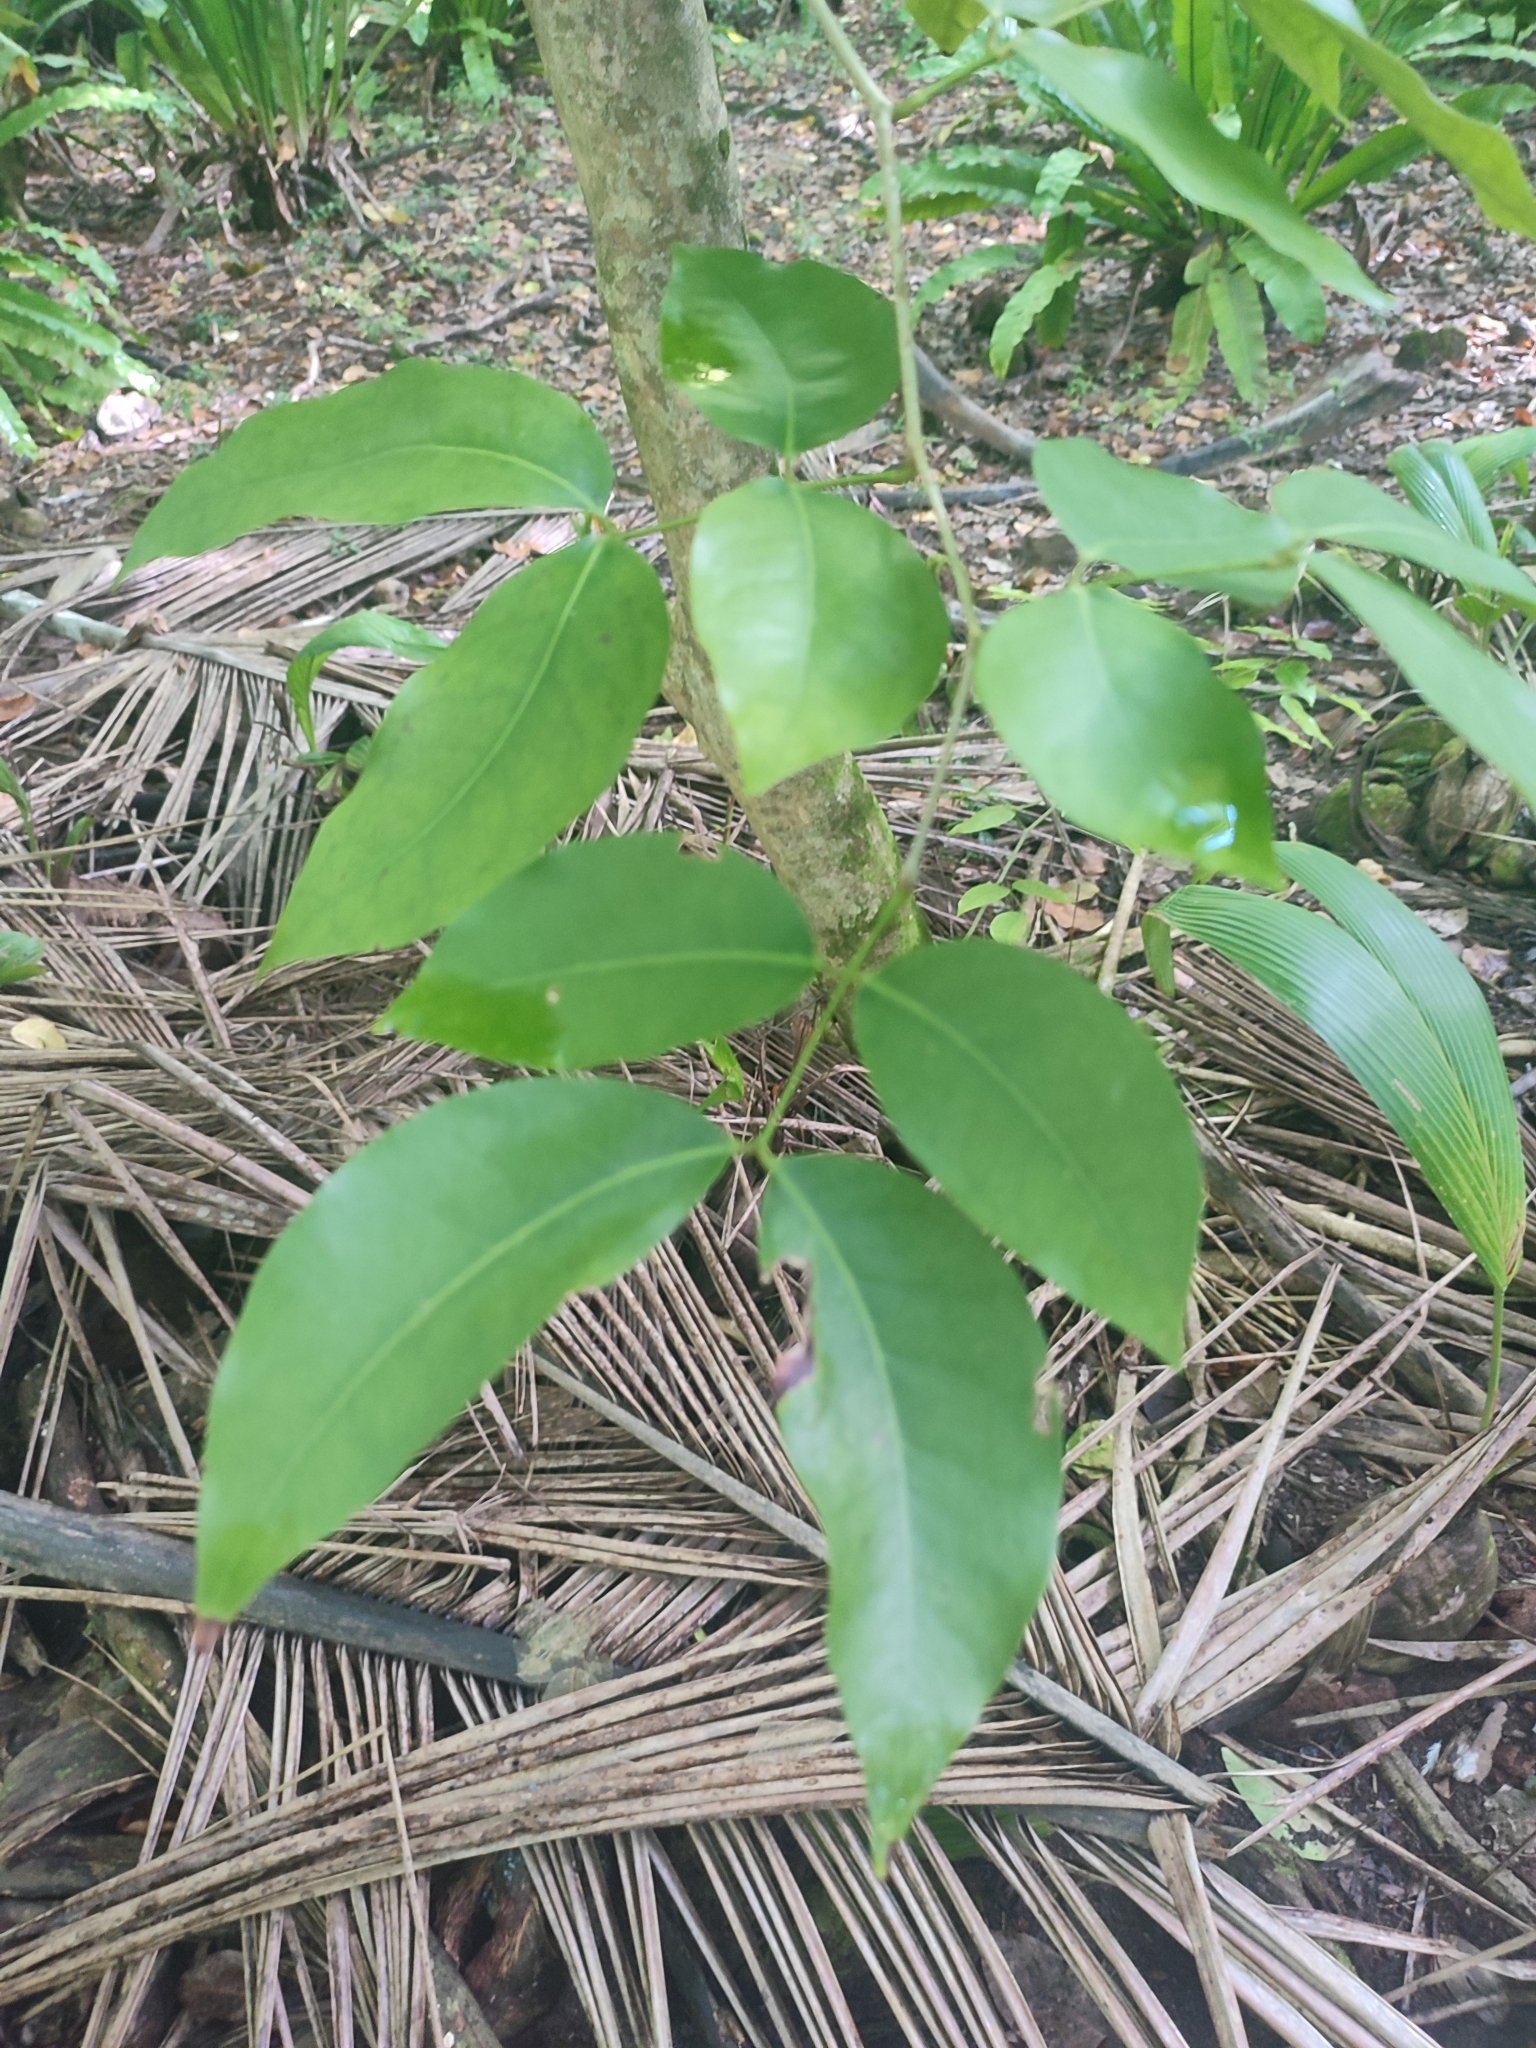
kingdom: Plantae
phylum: Tracheophyta
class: Magnoliopsida
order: Fabales
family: Fabaceae
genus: Intsia
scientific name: Intsia bijuga
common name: Moluccan ironwood
